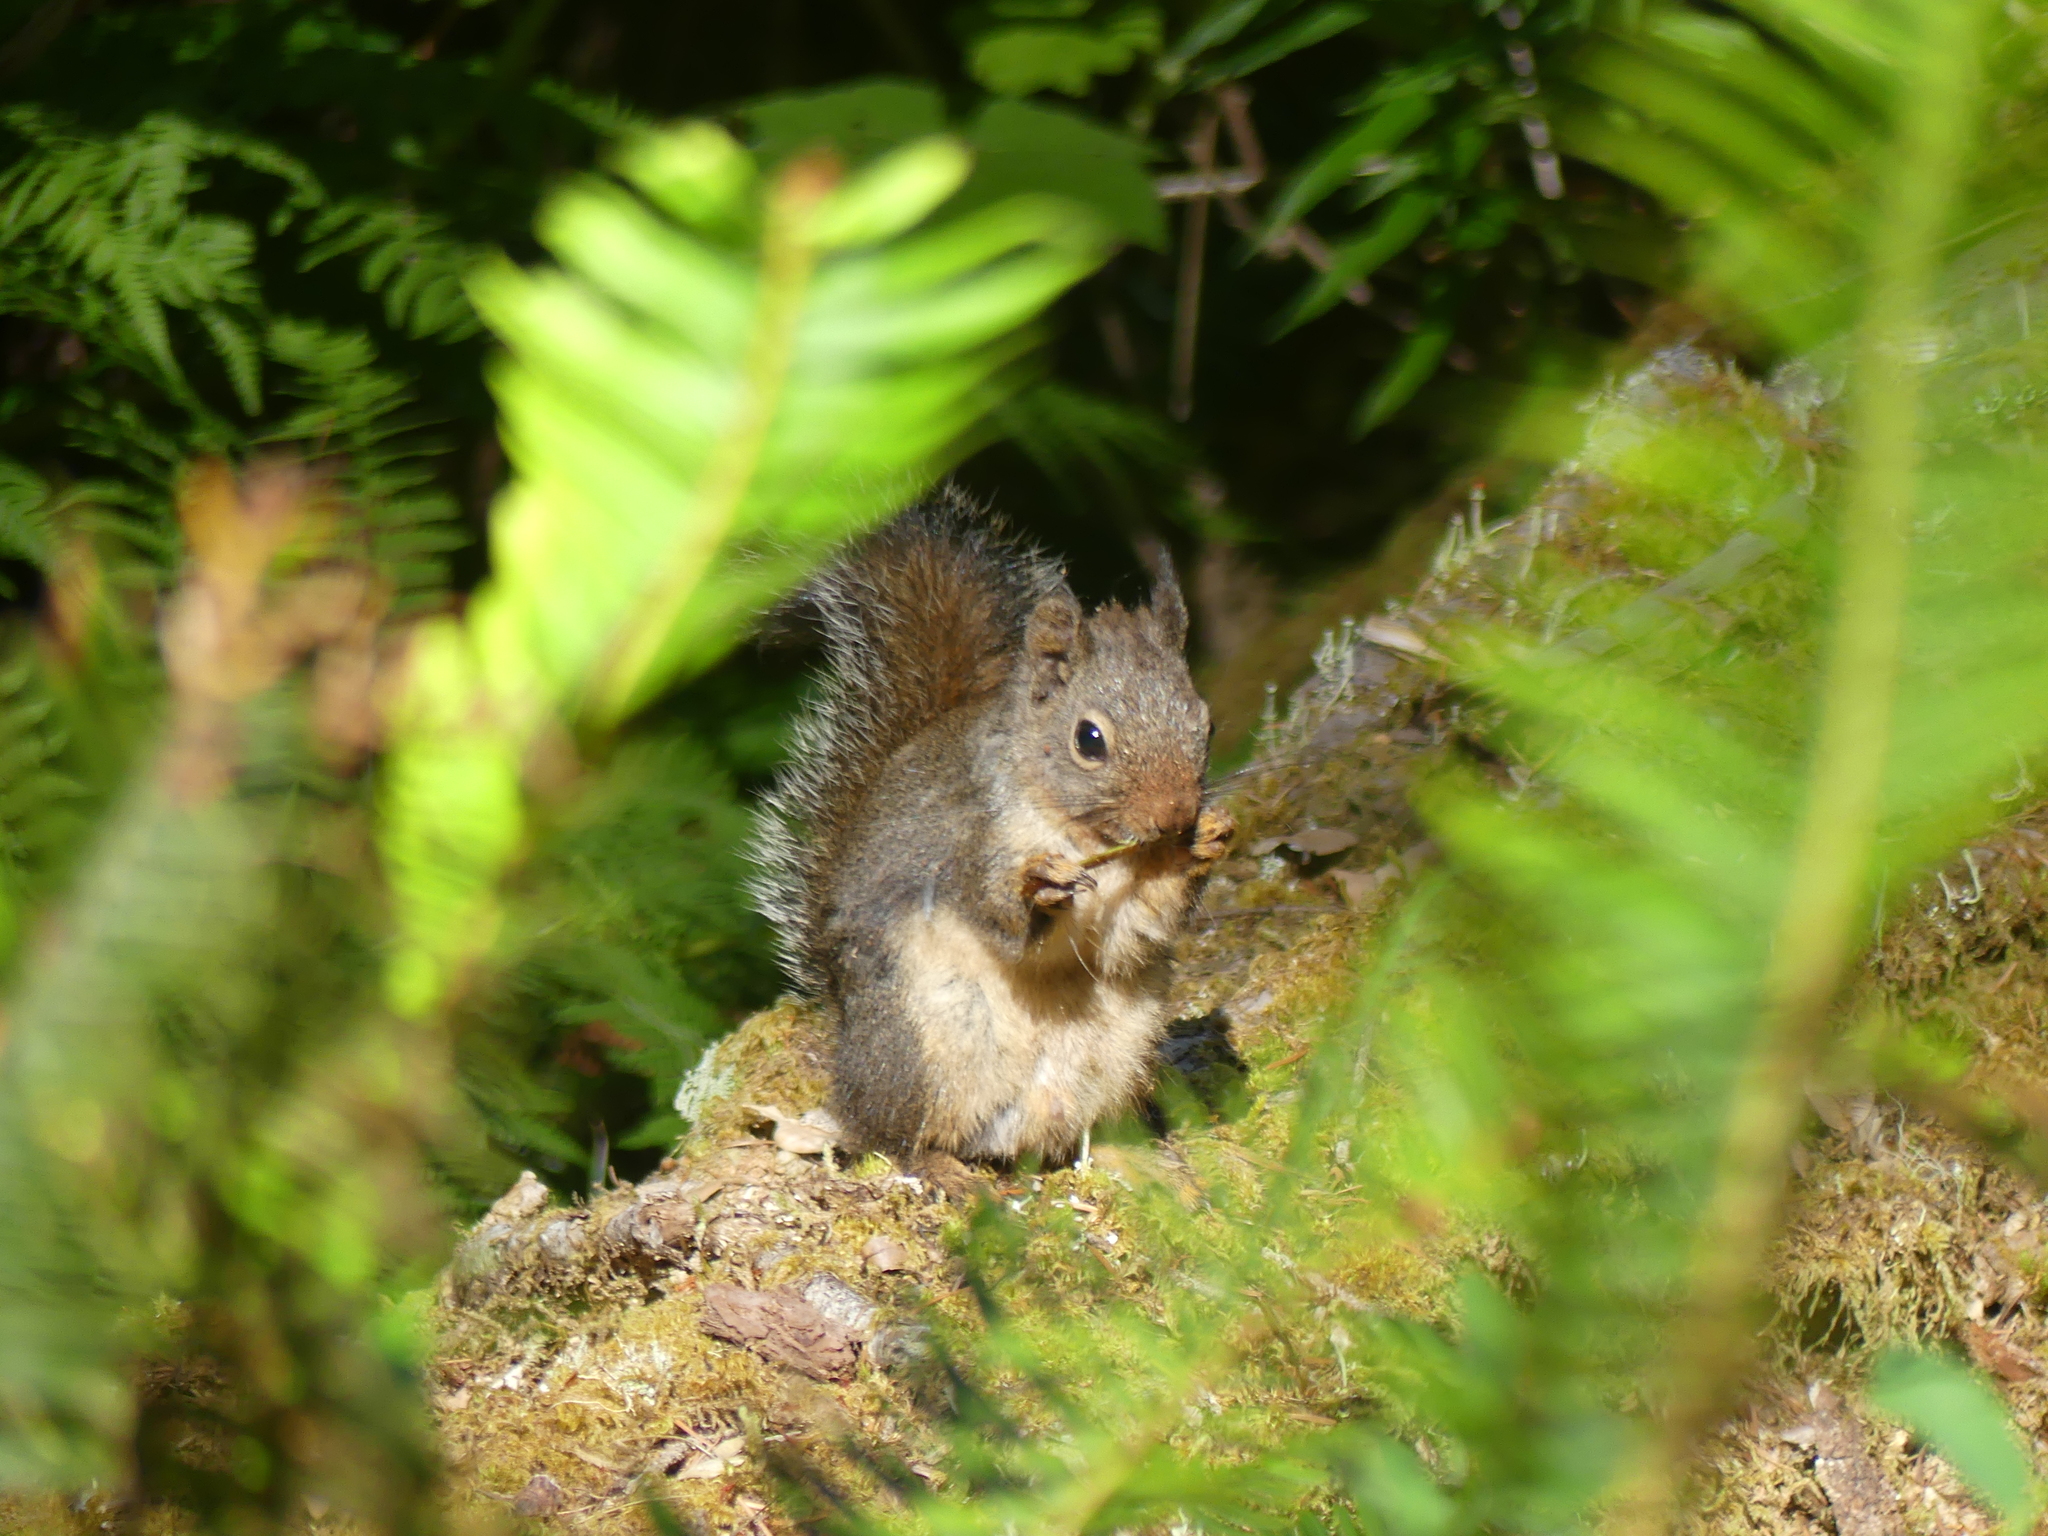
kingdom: Animalia
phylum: Chordata
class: Mammalia
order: Rodentia
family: Sciuridae
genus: Tamiasciurus
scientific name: Tamiasciurus douglasii
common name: Douglas's squirrel
